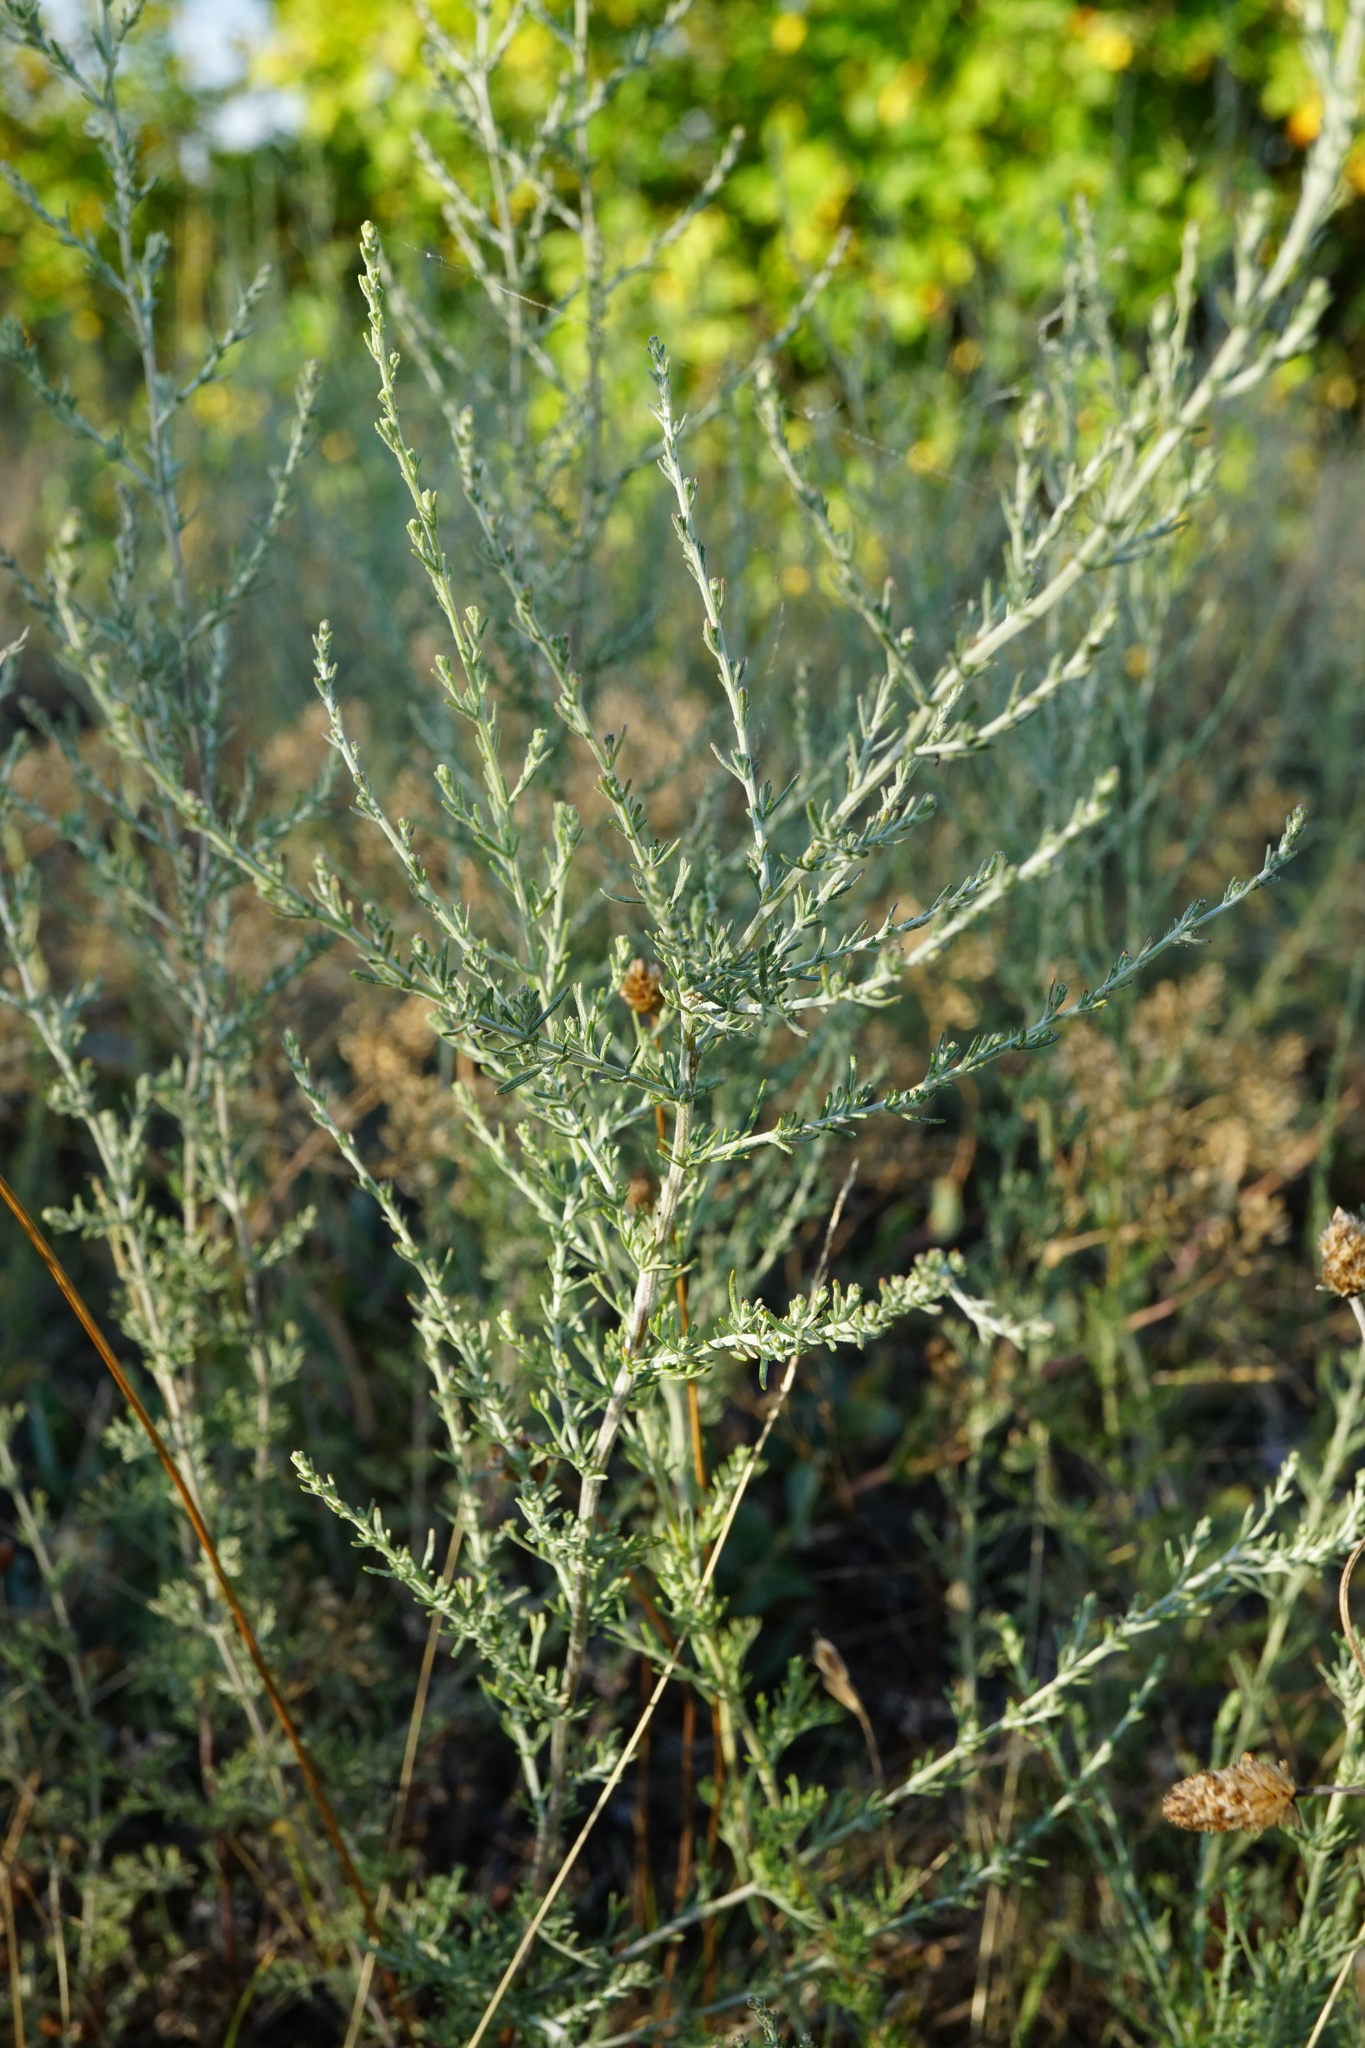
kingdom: Plantae
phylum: Tracheophyta
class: Magnoliopsida
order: Asterales
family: Asteraceae
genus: Artemisia
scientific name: Artemisia santonicum
